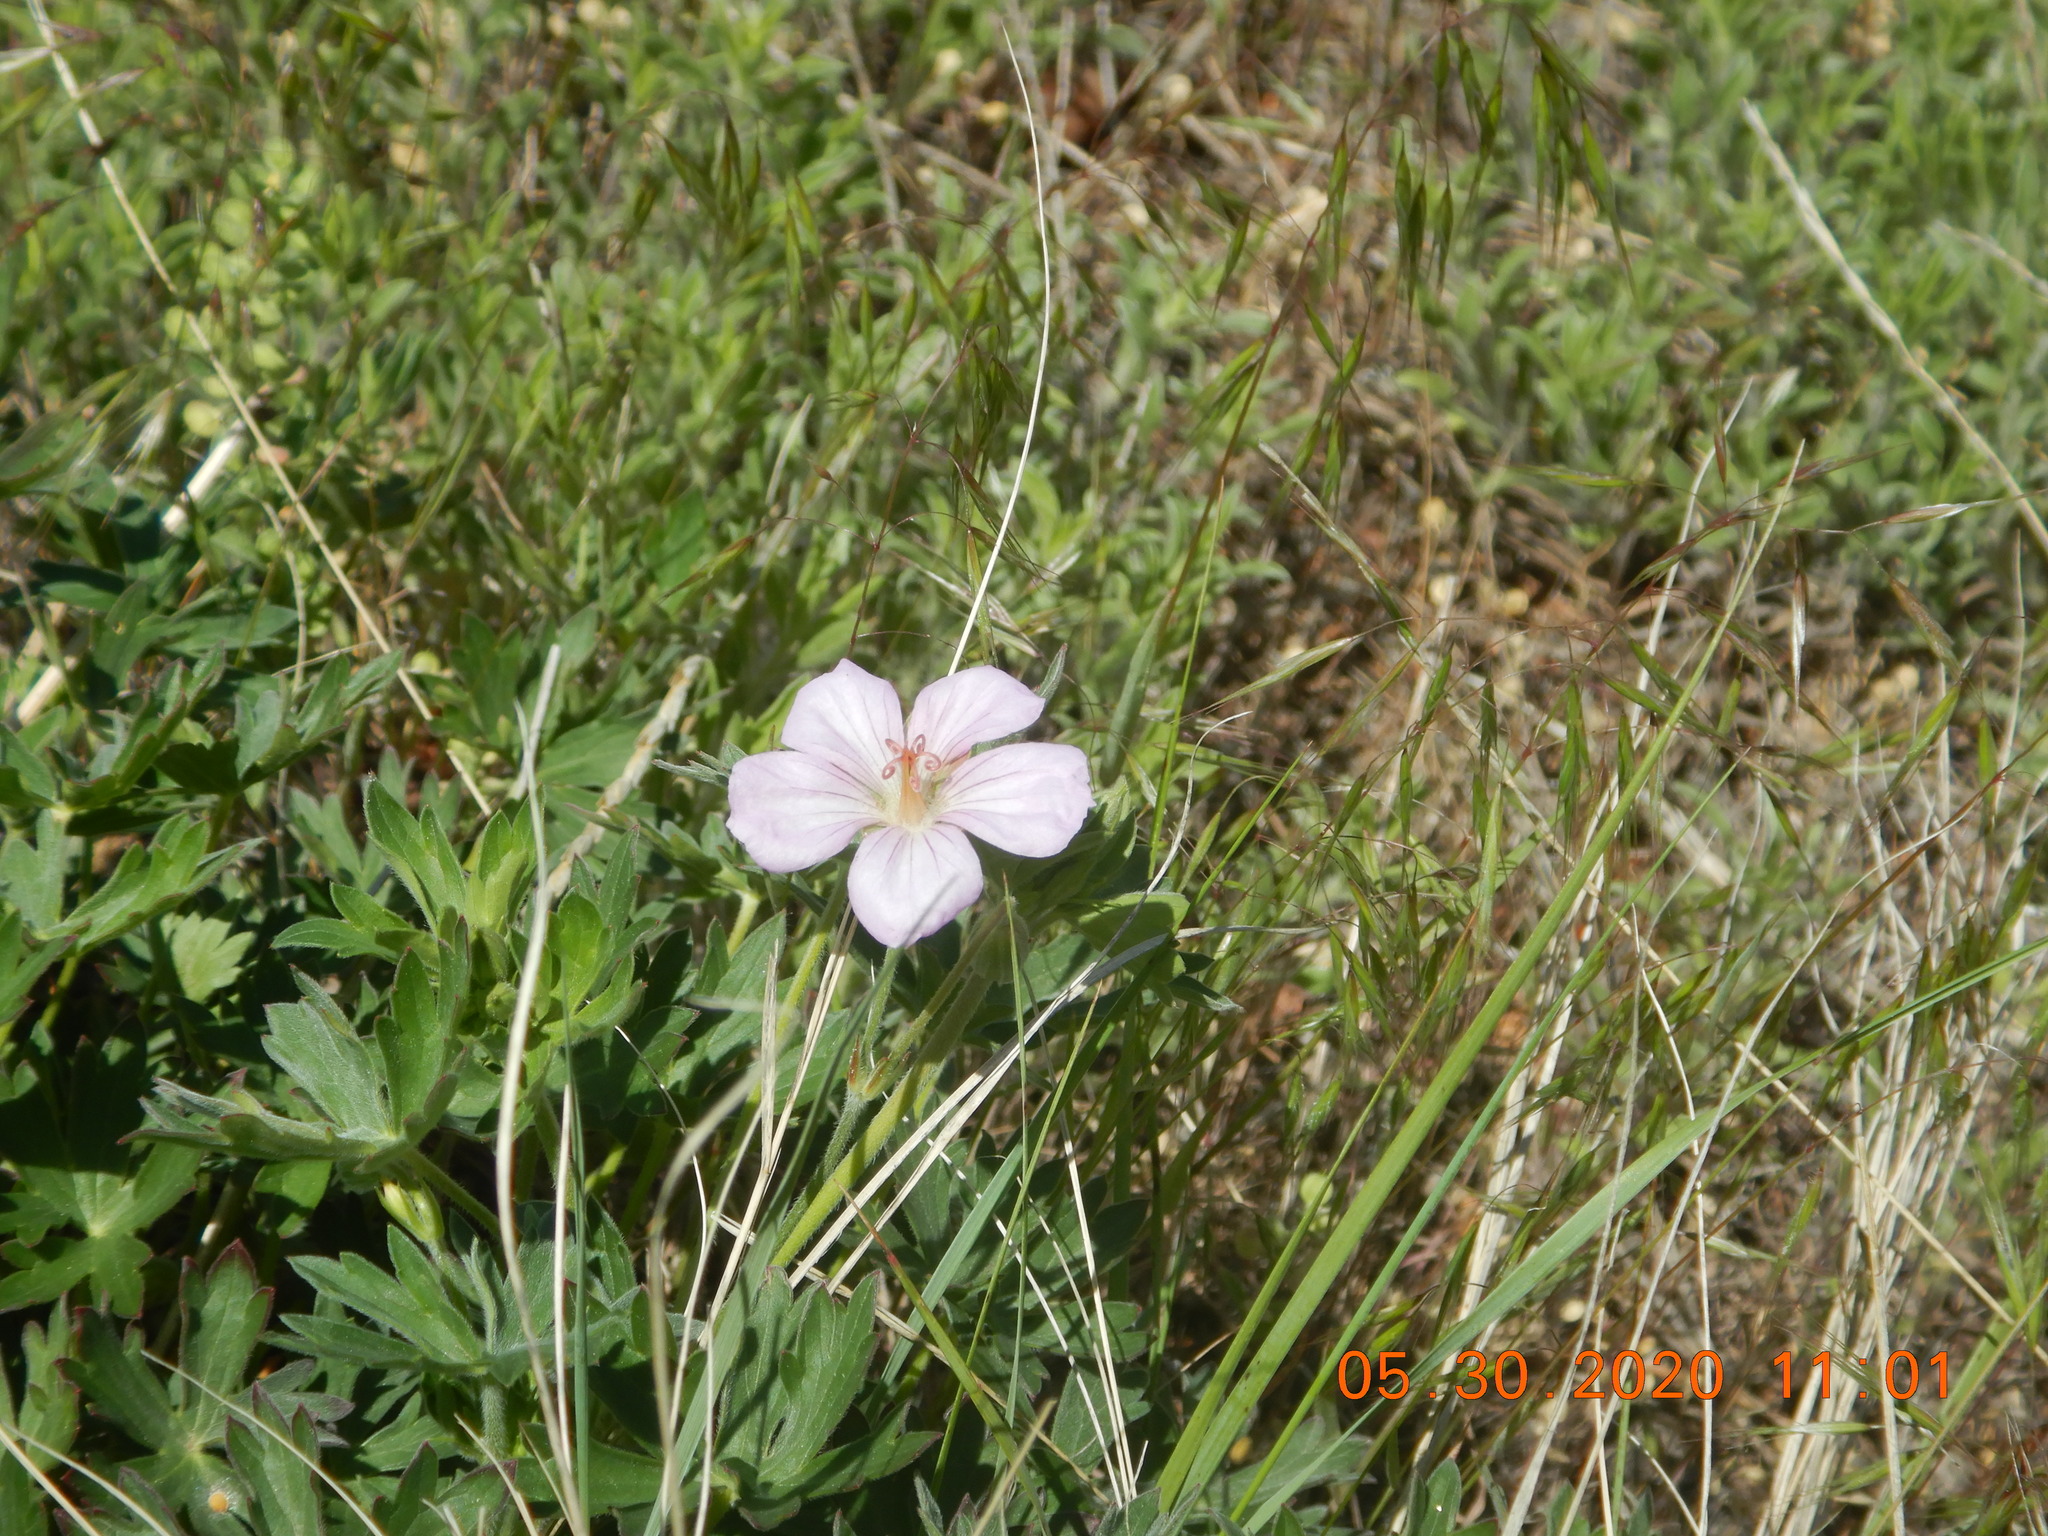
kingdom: Plantae
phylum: Tracheophyta
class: Magnoliopsida
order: Geraniales
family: Geraniaceae
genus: Geranium
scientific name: Geranium caespitosum
